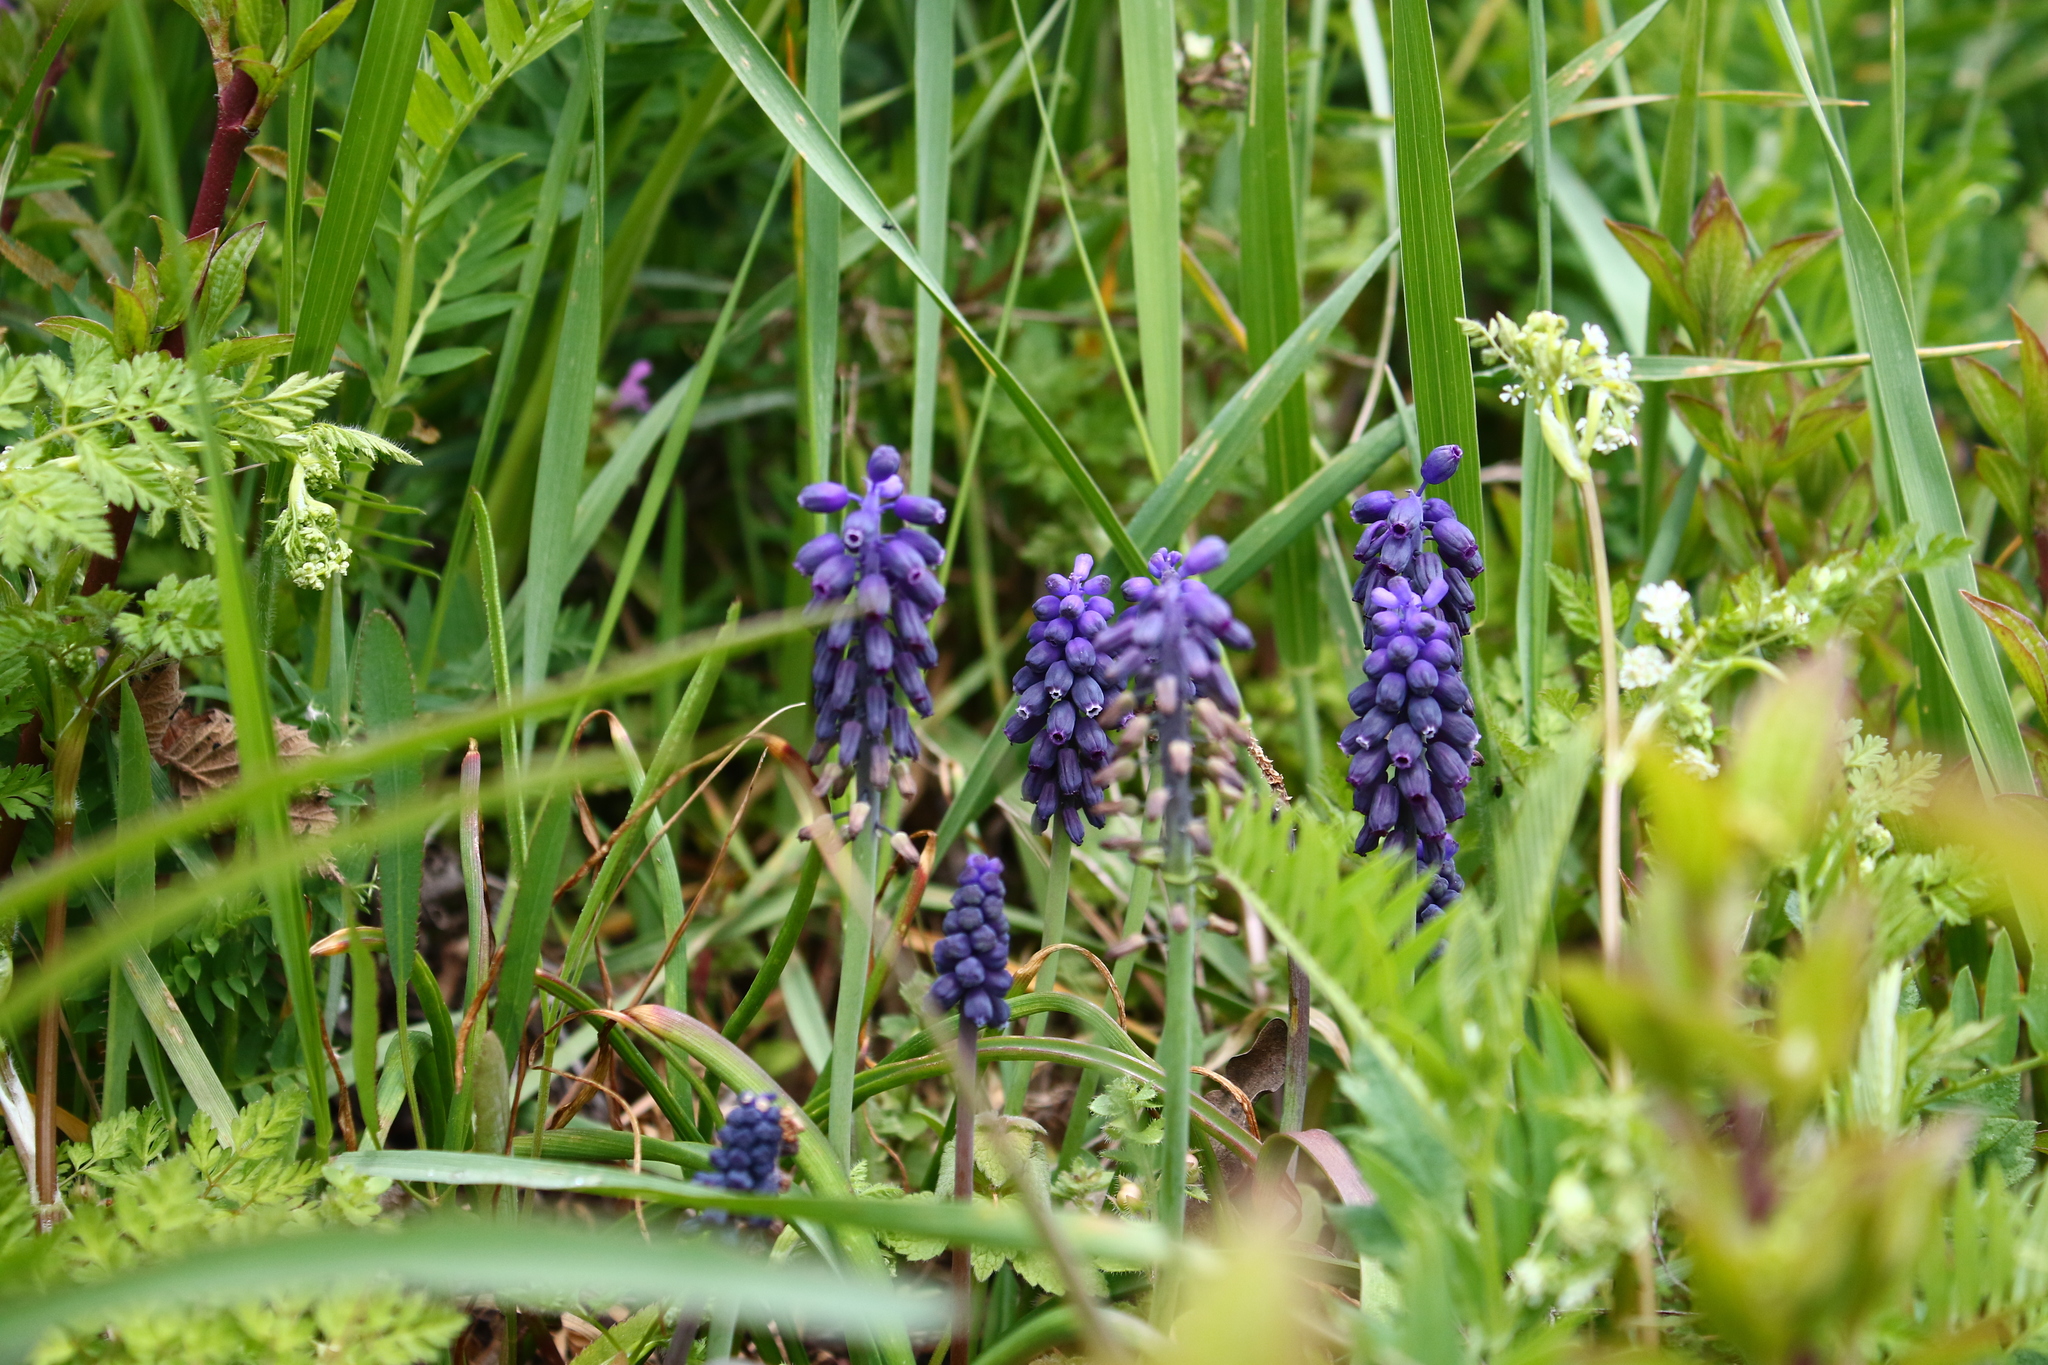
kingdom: Plantae
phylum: Tracheophyta
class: Liliopsida
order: Asparagales
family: Asparagaceae
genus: Muscari
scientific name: Muscari neglectum
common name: Grape-hyacinth
